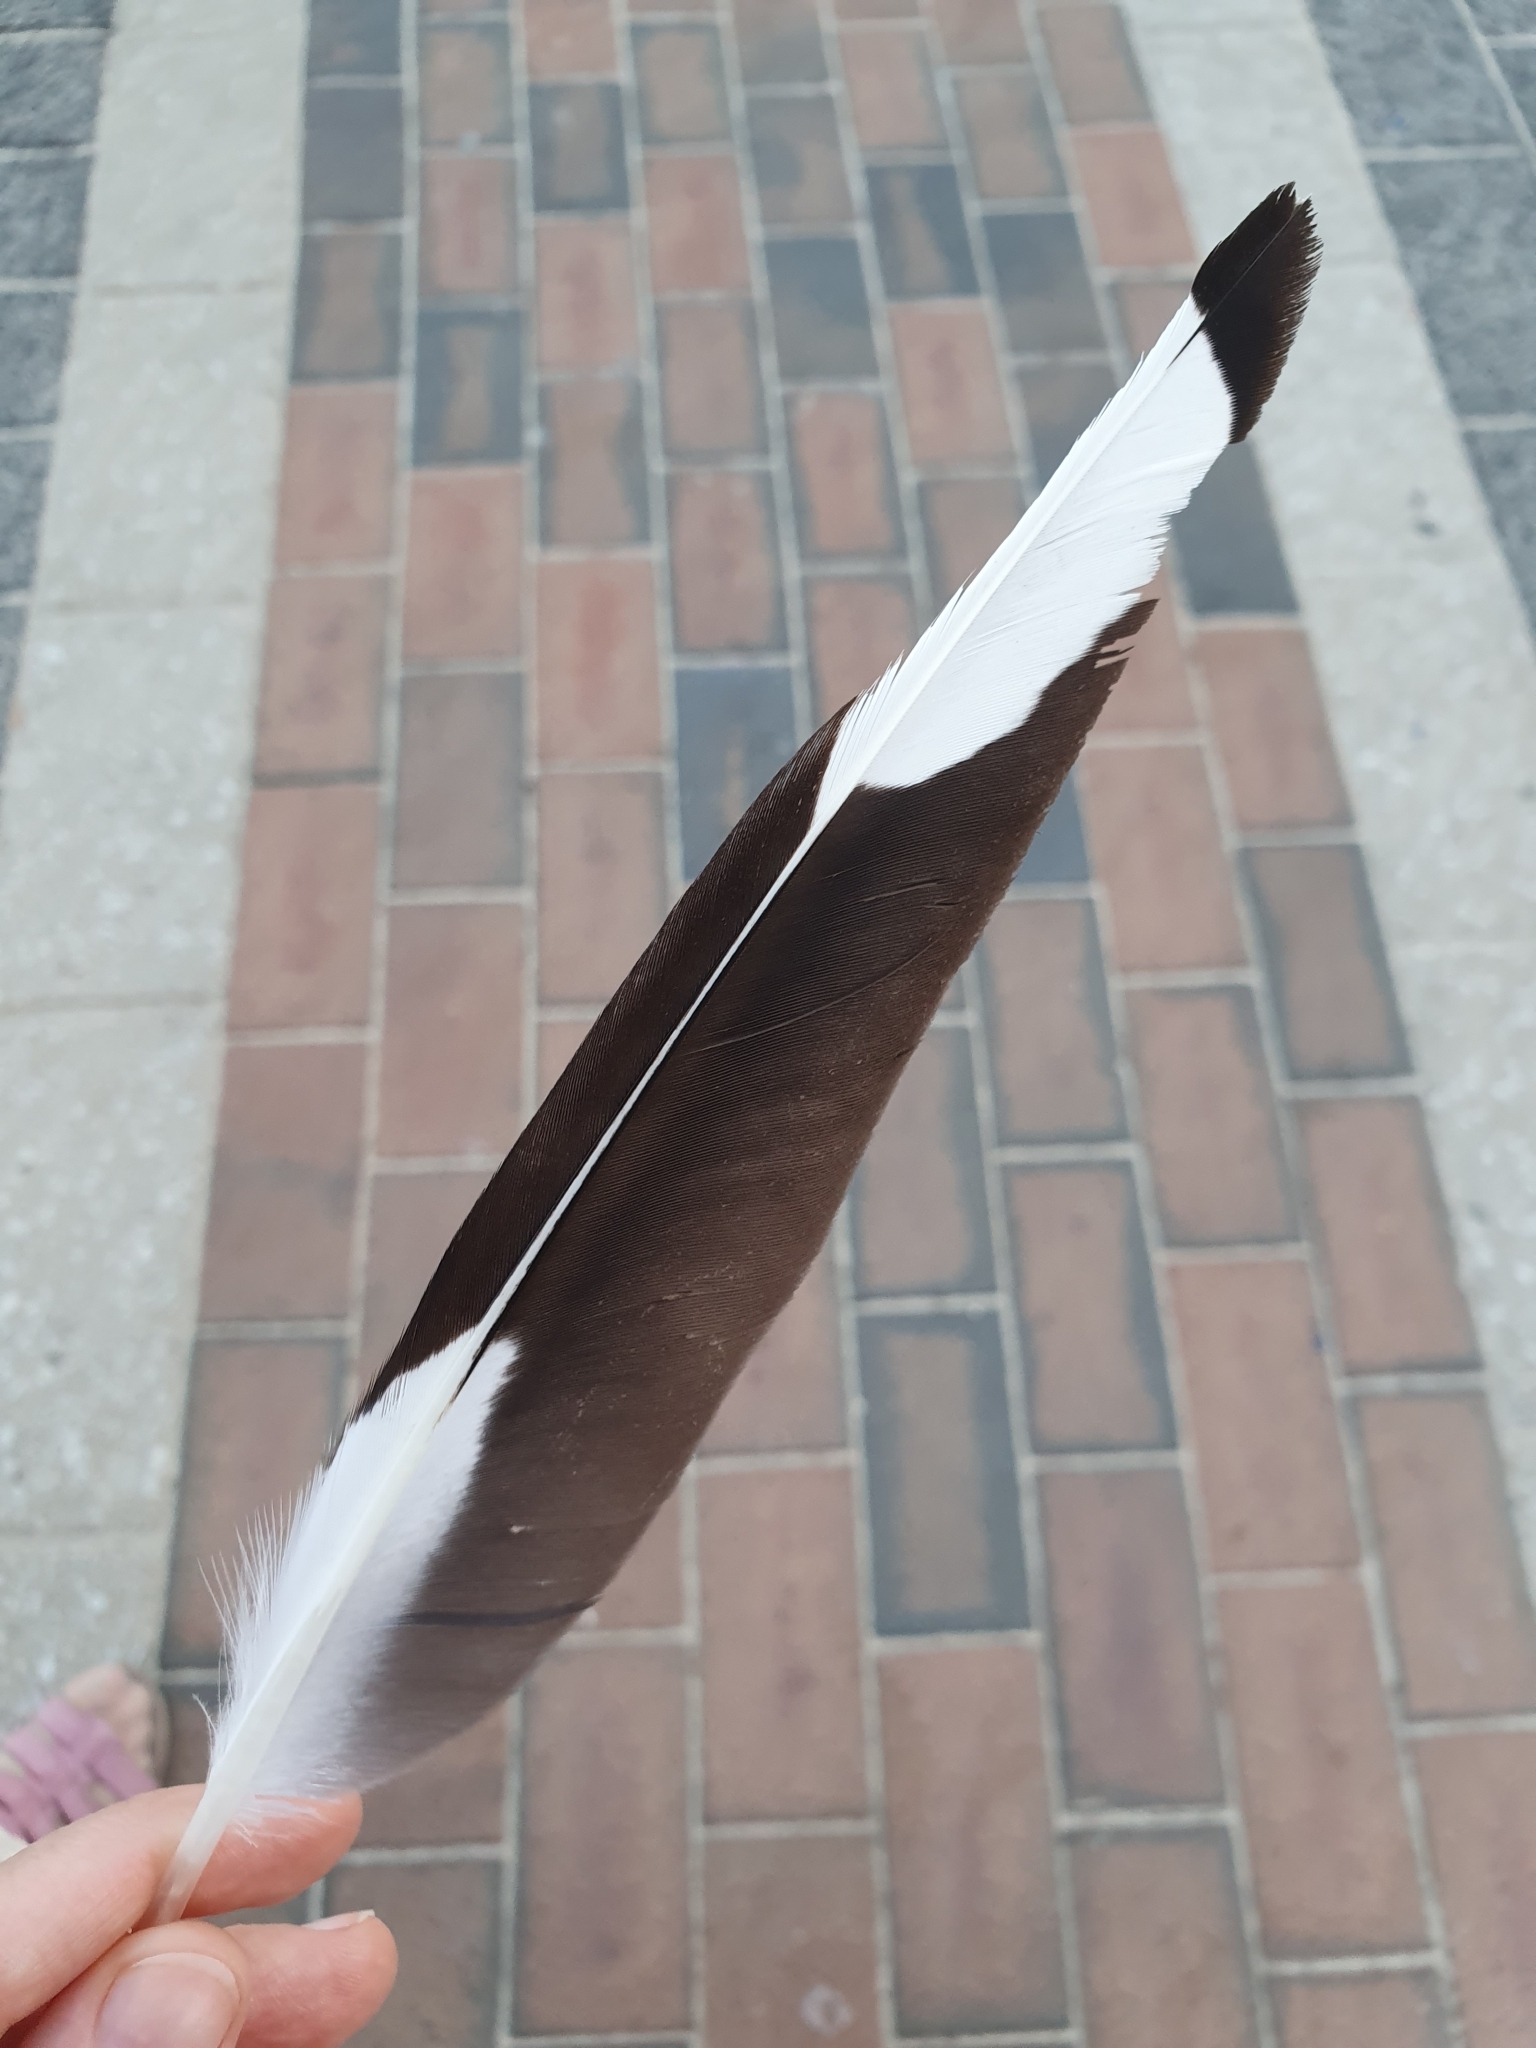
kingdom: Animalia
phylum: Chordata
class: Aves
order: Charadriiformes
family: Laridae
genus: Chroicocephalus
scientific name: Chroicocephalus novaehollandiae
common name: Silver gull
